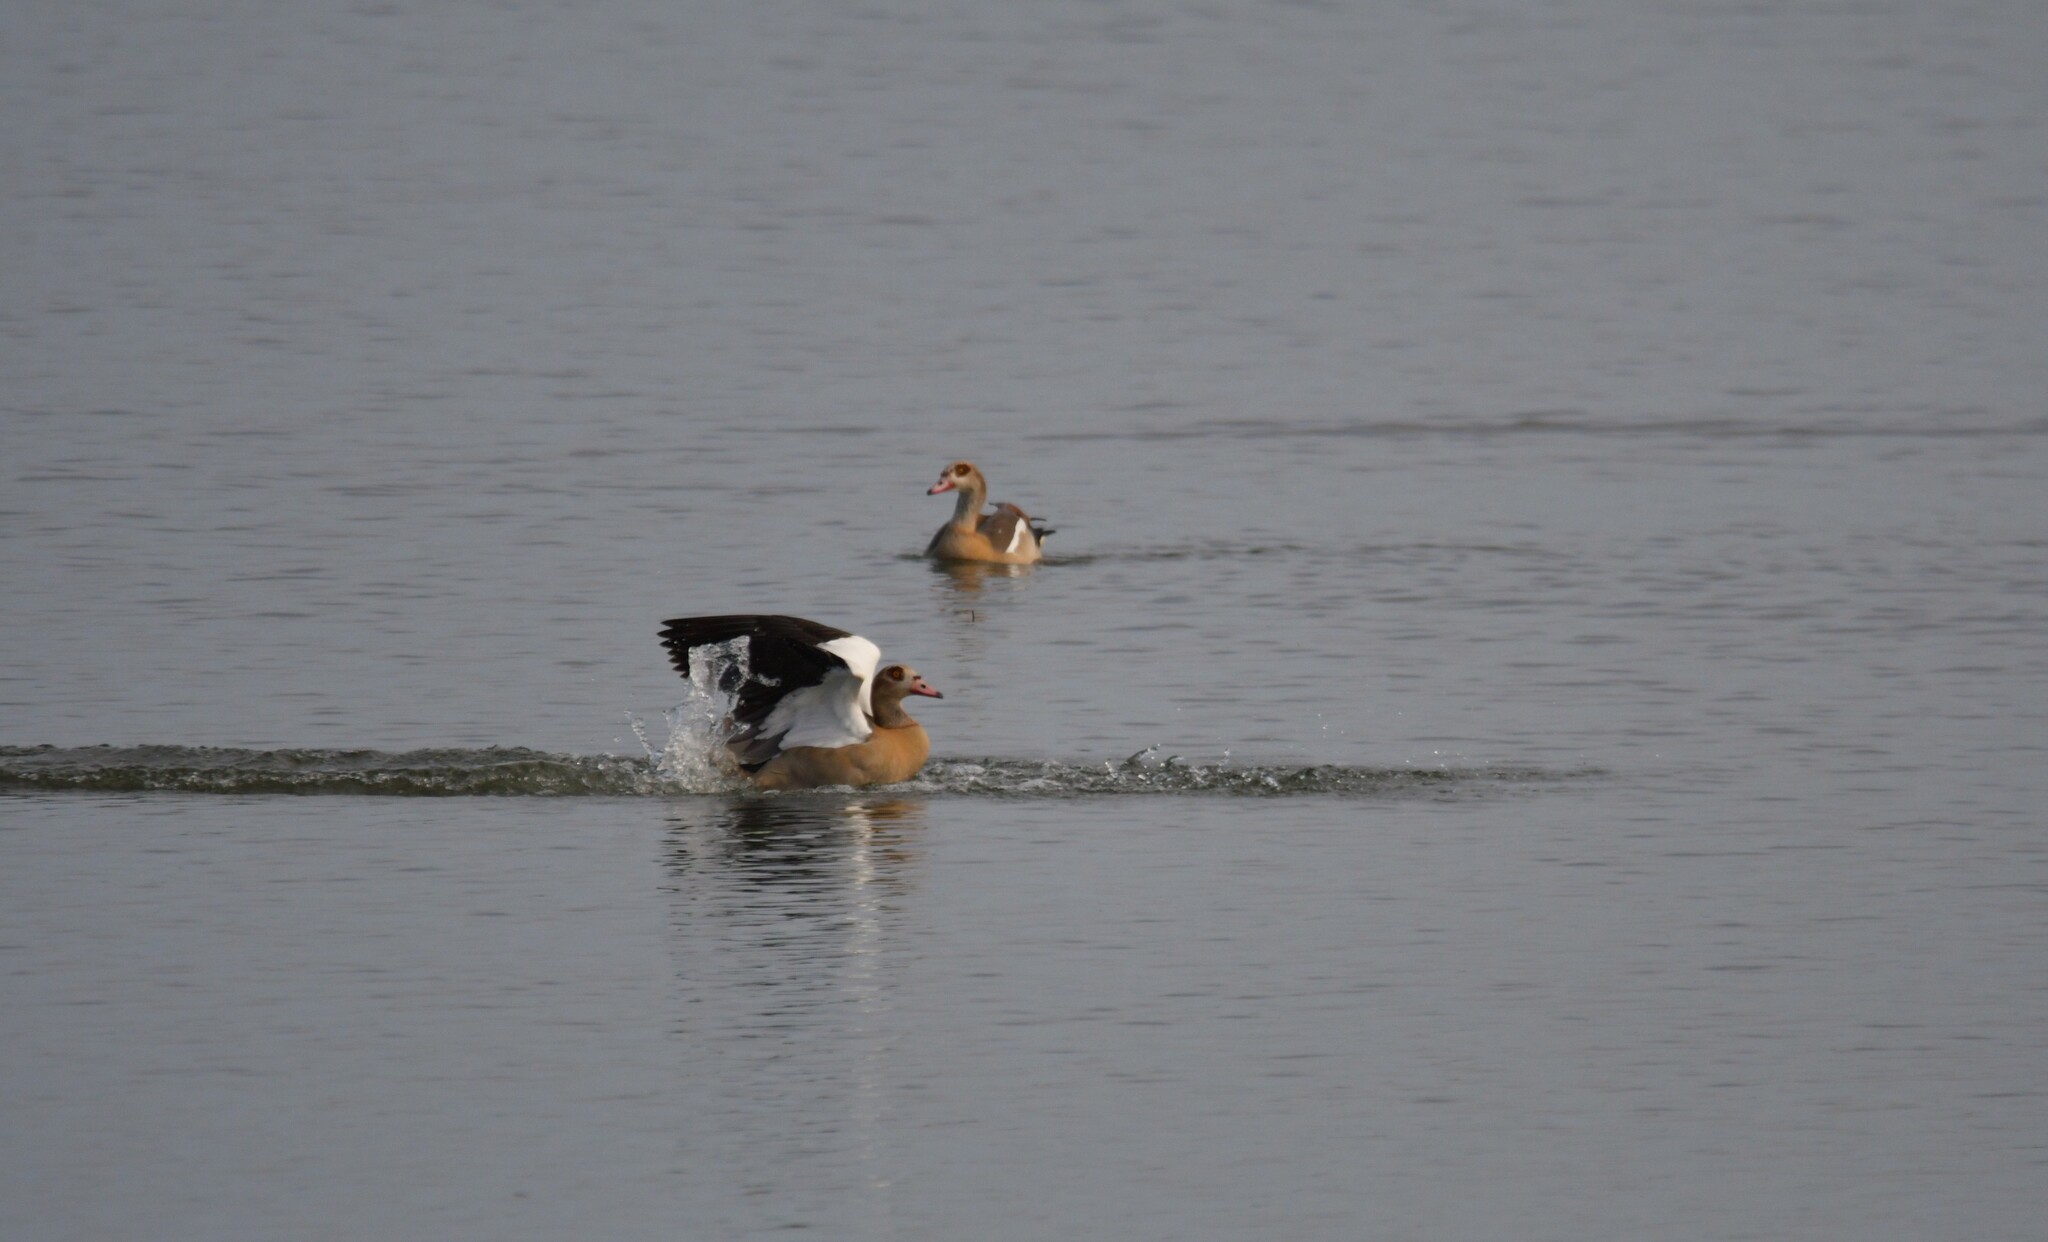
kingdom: Animalia
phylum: Chordata
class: Aves
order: Anseriformes
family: Anatidae
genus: Alopochen
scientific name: Alopochen aegyptiaca
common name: Egyptian goose
